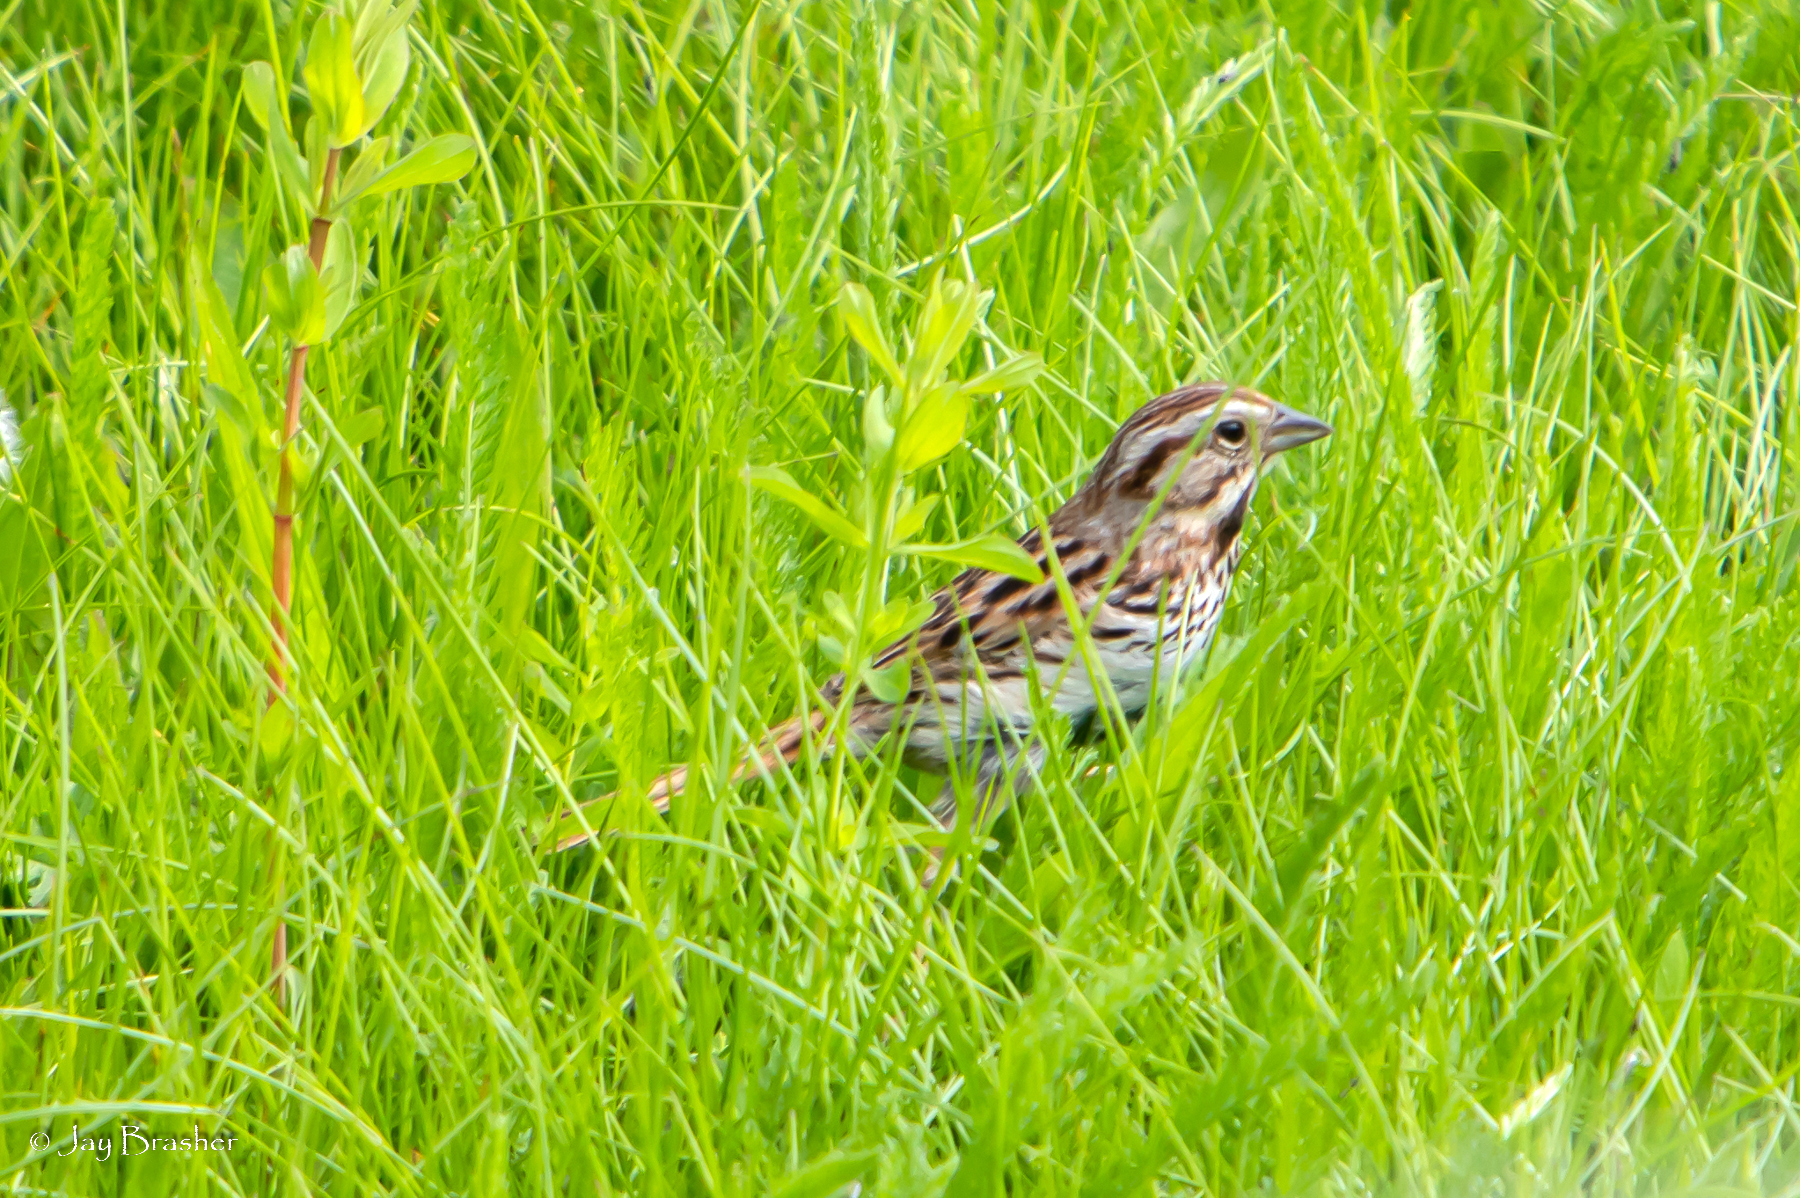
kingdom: Animalia
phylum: Chordata
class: Aves
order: Passeriformes
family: Passerellidae
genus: Melospiza
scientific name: Melospiza melodia
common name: Song sparrow
